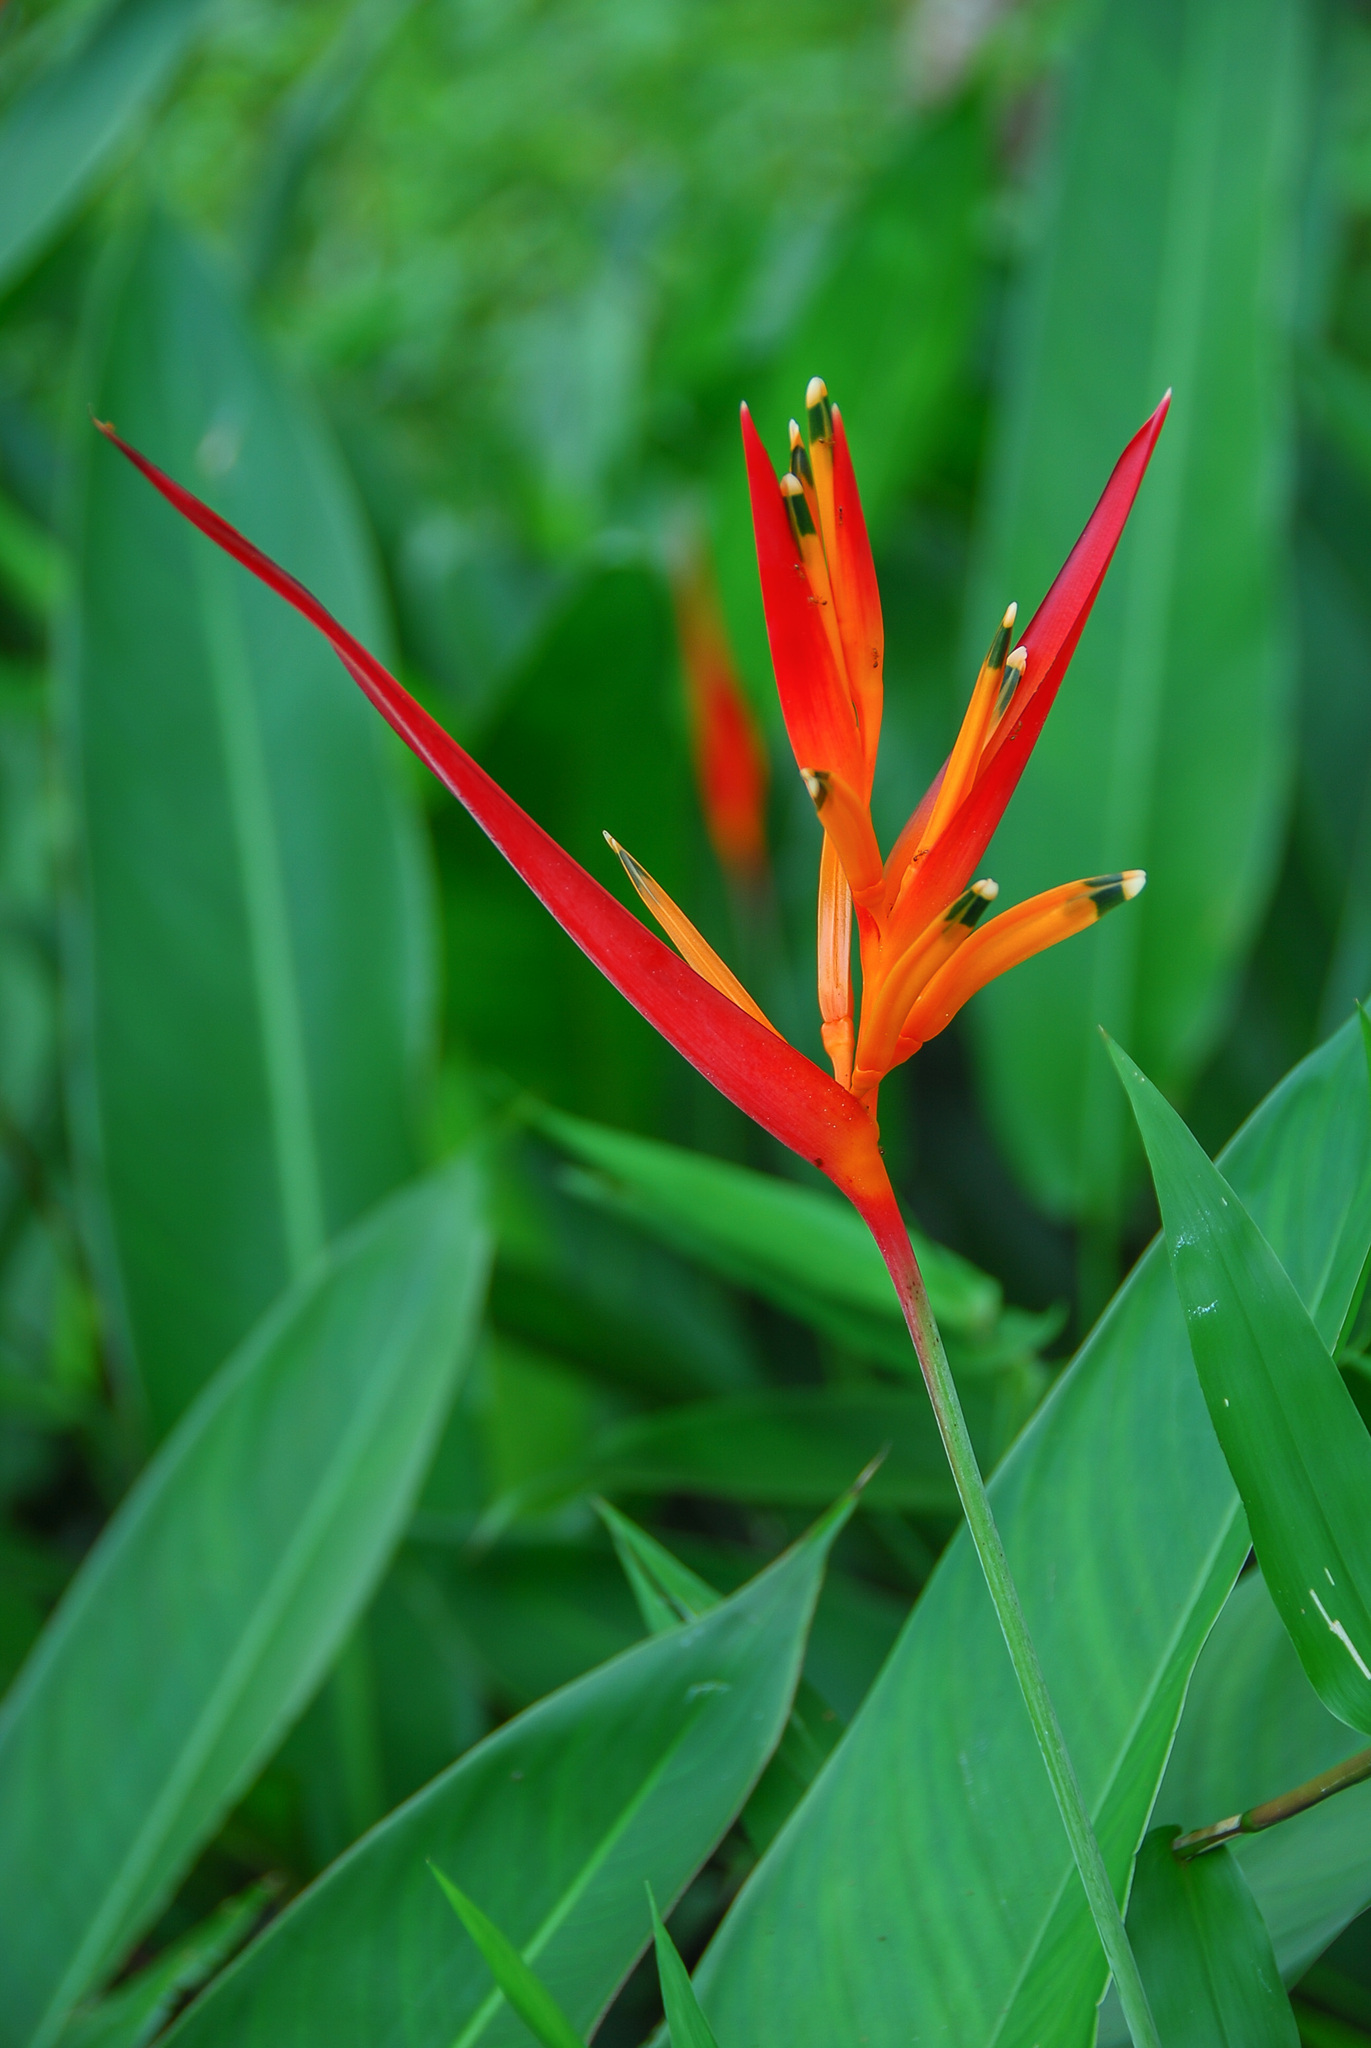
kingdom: Plantae
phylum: Tracheophyta
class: Liliopsida
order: Zingiberales
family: Heliconiaceae
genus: Heliconia
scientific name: Heliconia psittacorum
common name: Parrot's-flower
